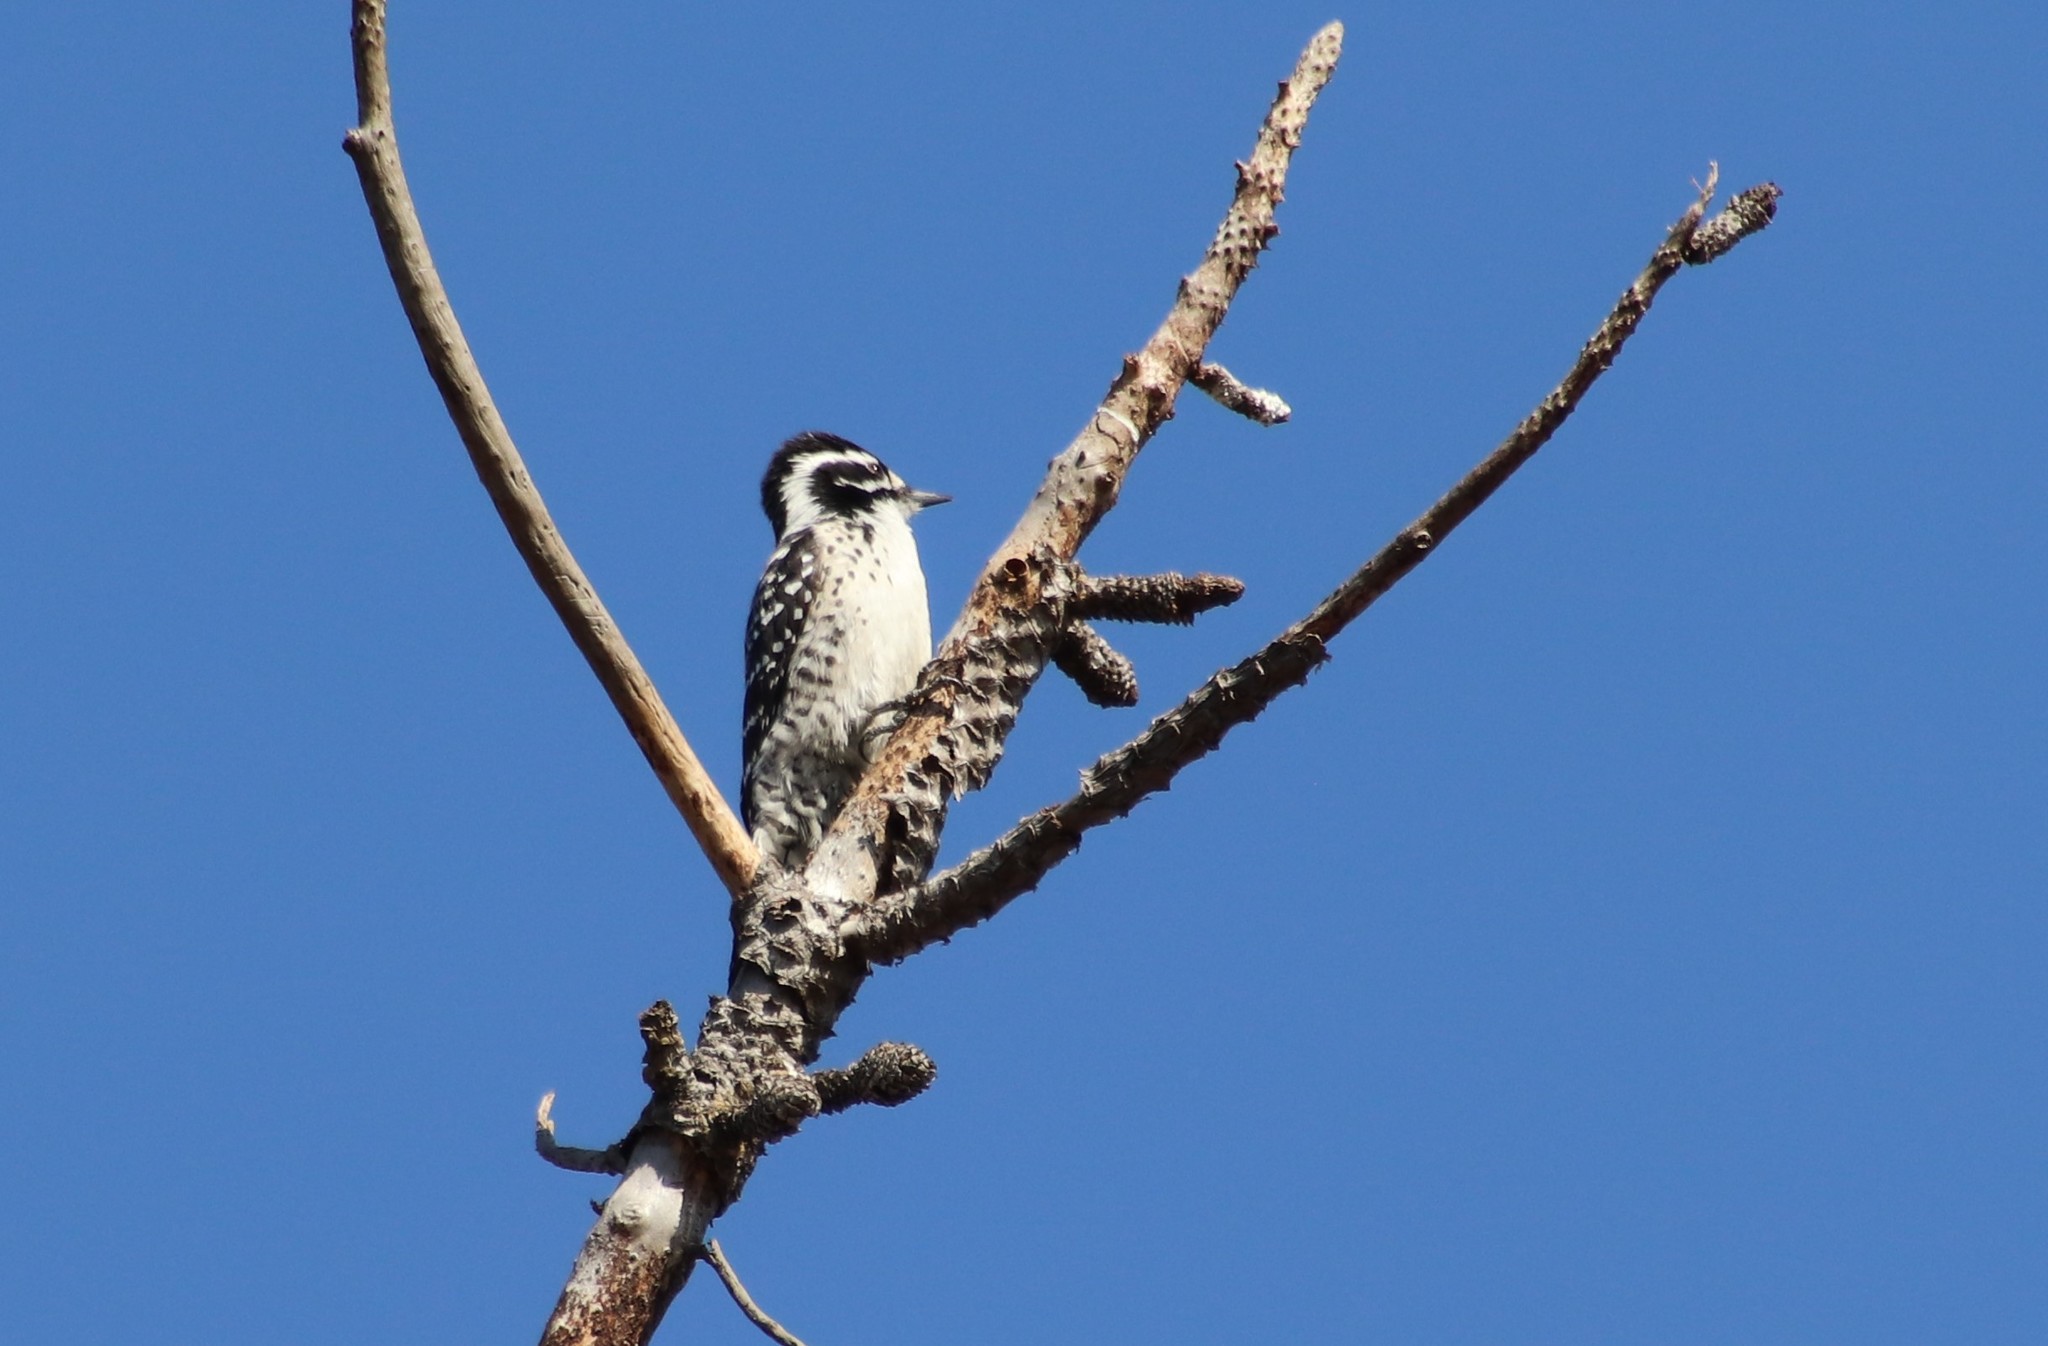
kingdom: Animalia
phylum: Chordata
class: Aves
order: Piciformes
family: Picidae
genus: Dryobates
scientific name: Dryobates nuttallii
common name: Nuttall's woodpecker
